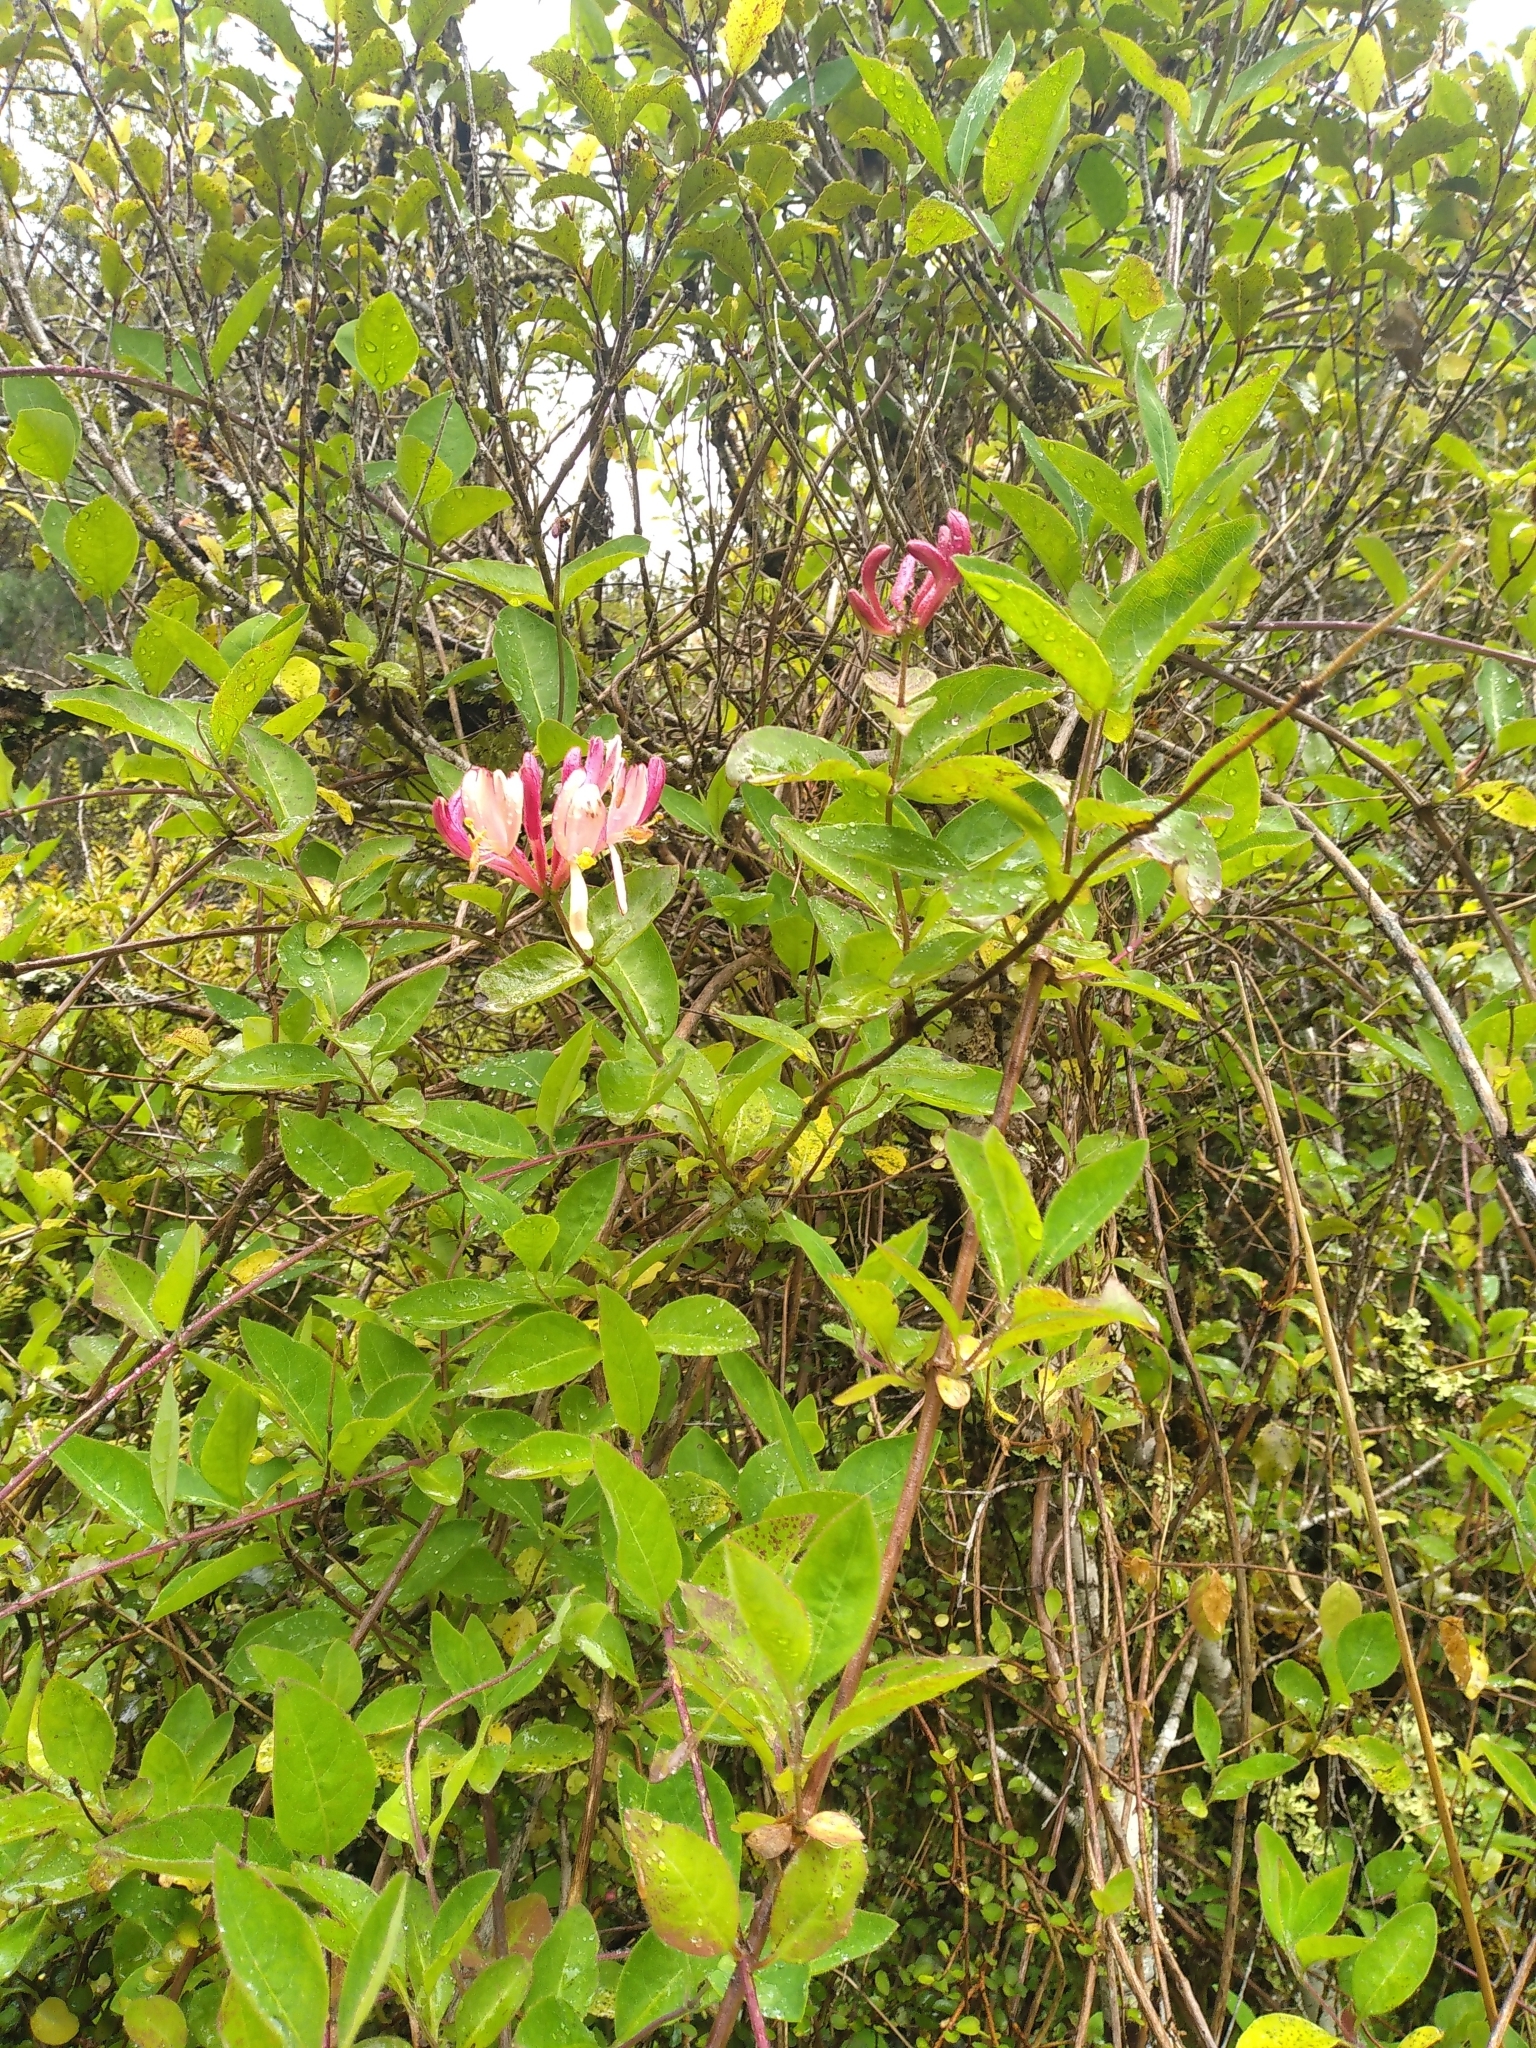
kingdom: Plantae
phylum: Tracheophyta
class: Magnoliopsida
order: Dipsacales
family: Caprifoliaceae
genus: Lonicera
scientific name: Lonicera periclymenum
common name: European honeysuckle
